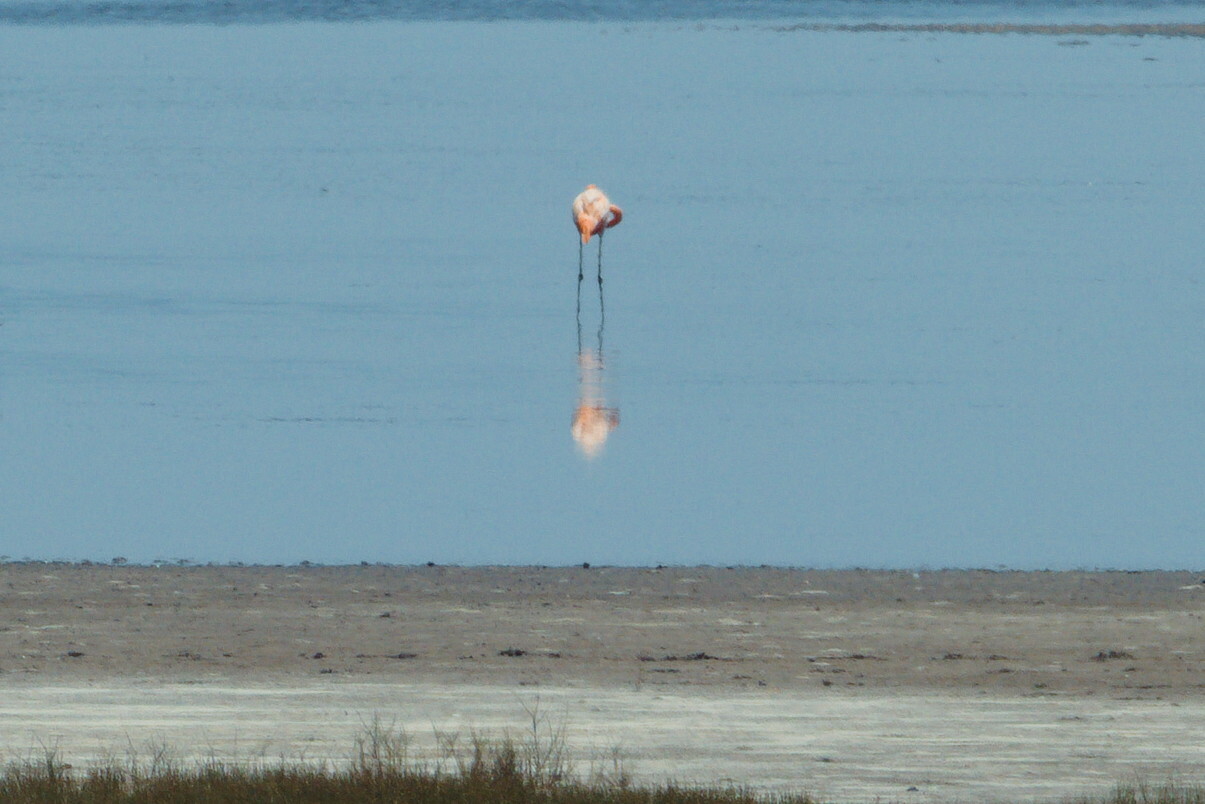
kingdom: Animalia
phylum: Chordata
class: Aves
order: Phoenicopteriformes
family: Phoenicopteridae
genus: Phoenicopterus
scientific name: Phoenicopterus ruber
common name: American flamingo
